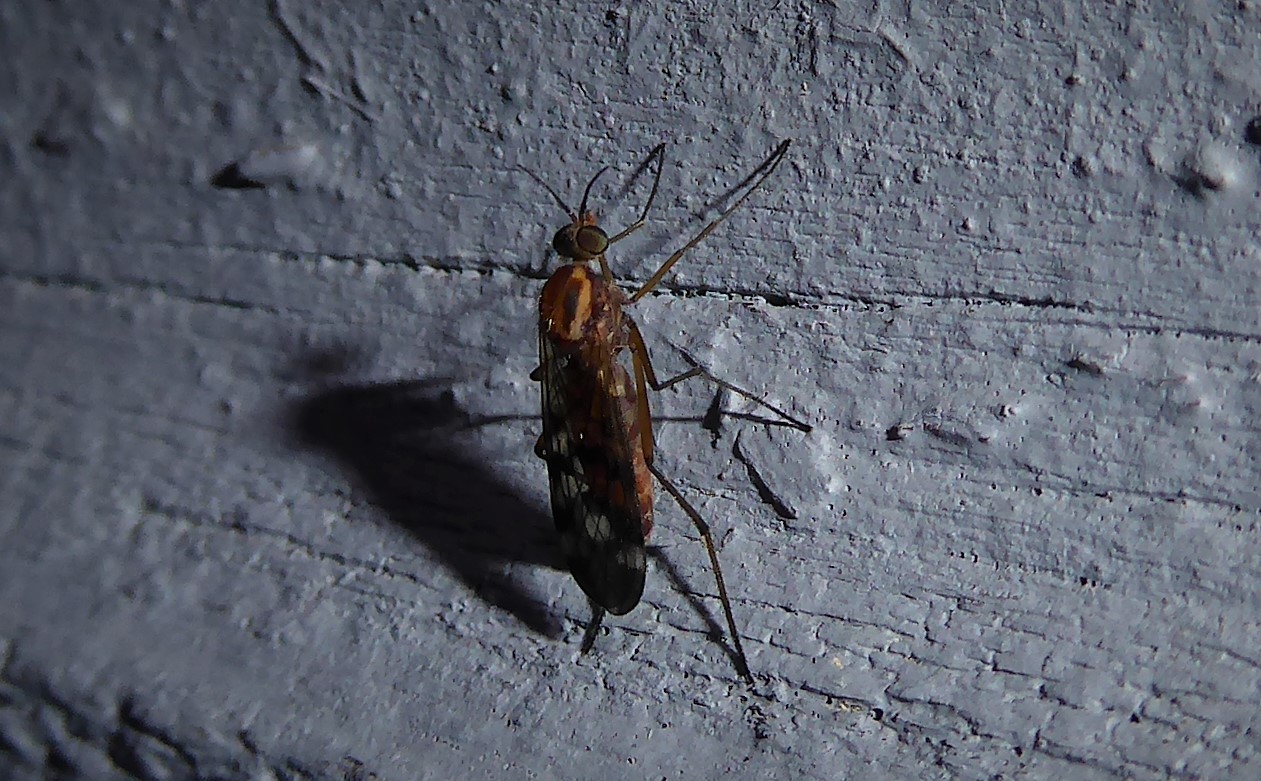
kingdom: Animalia
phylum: Arthropoda
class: Insecta
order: Diptera
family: Anisopodidae
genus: Sylvicola
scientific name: Sylvicola notatus
